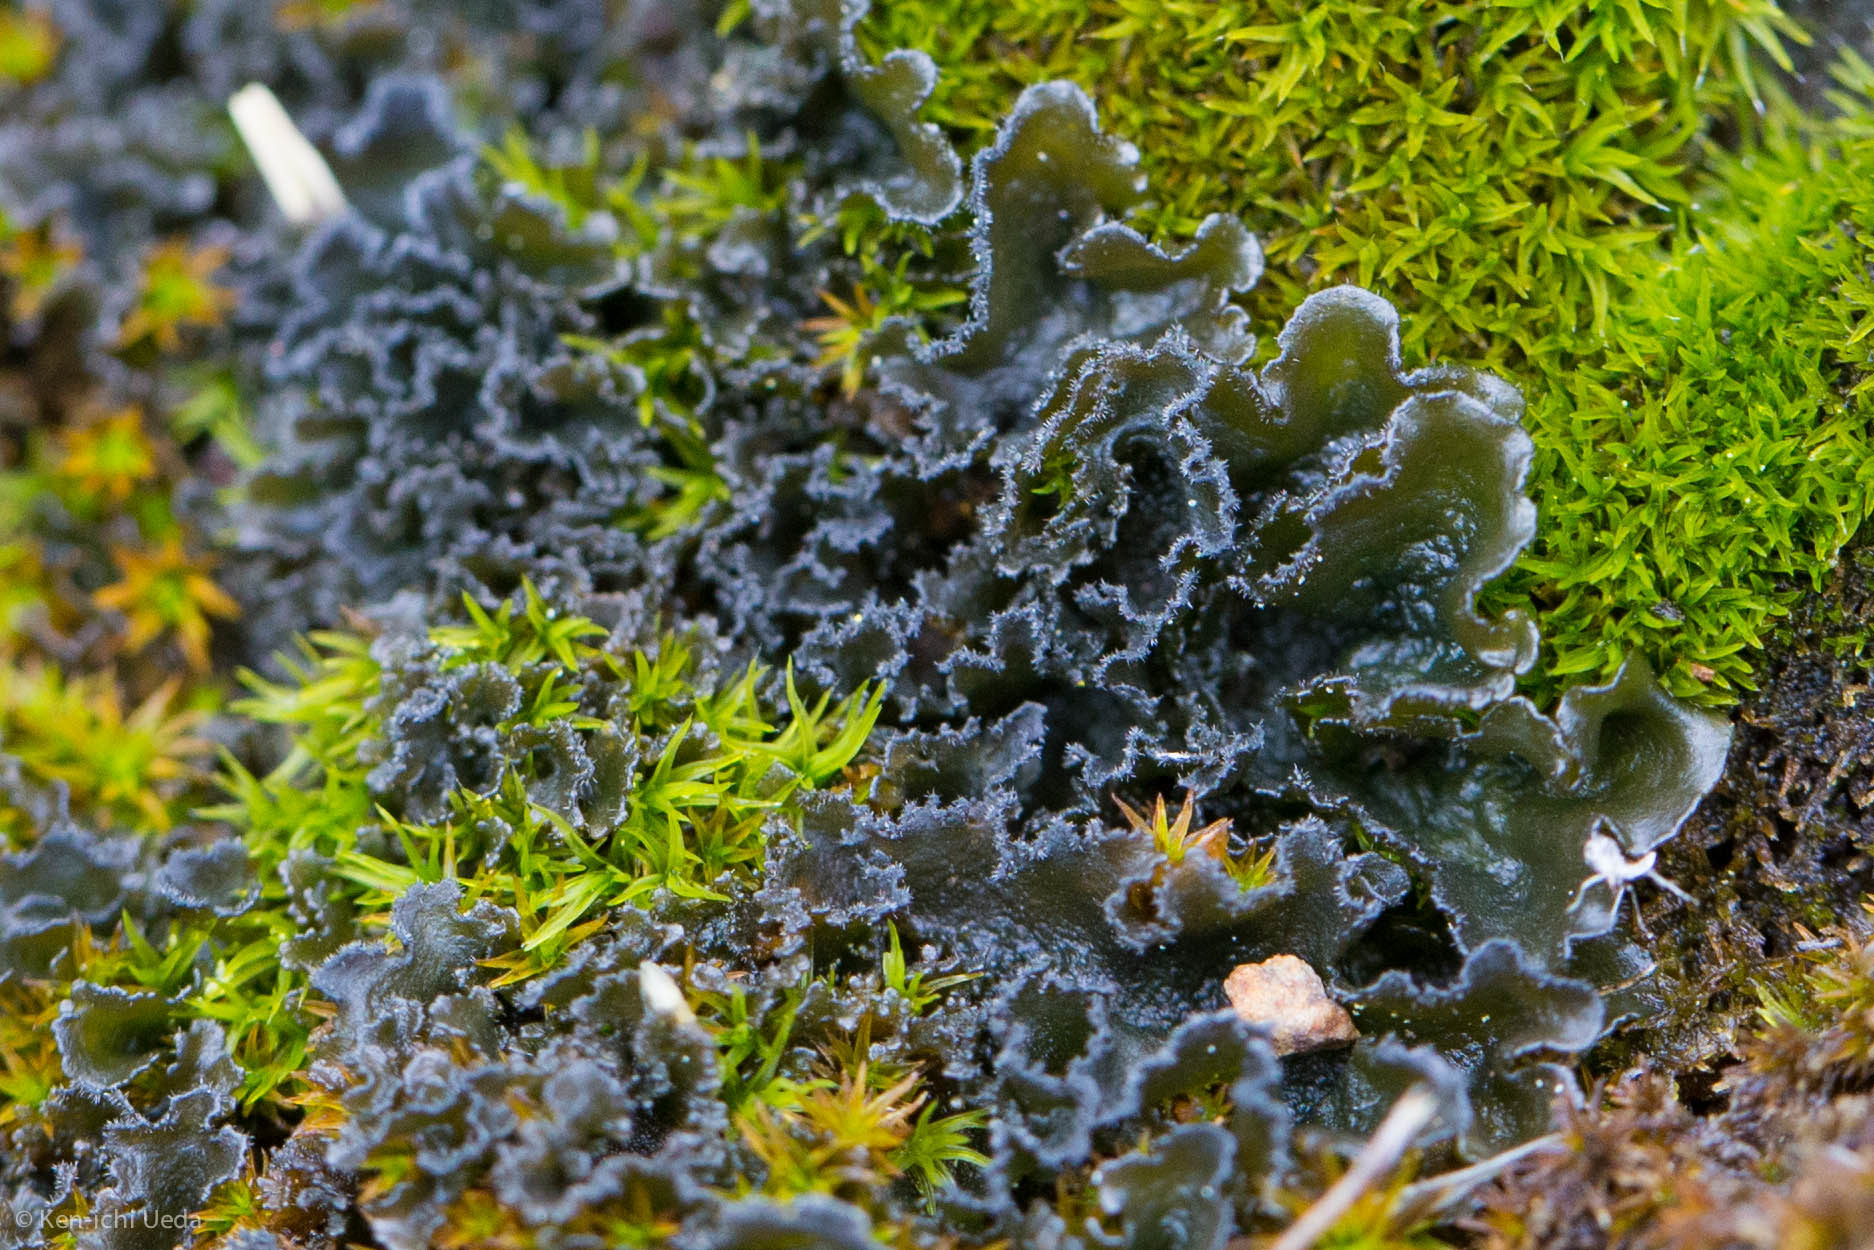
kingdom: Fungi
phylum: Ascomycota
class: Lecanoromycetes
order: Peltigerales
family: Massalongiaceae
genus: Leptochidium
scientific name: Leptochidium albociliatum
